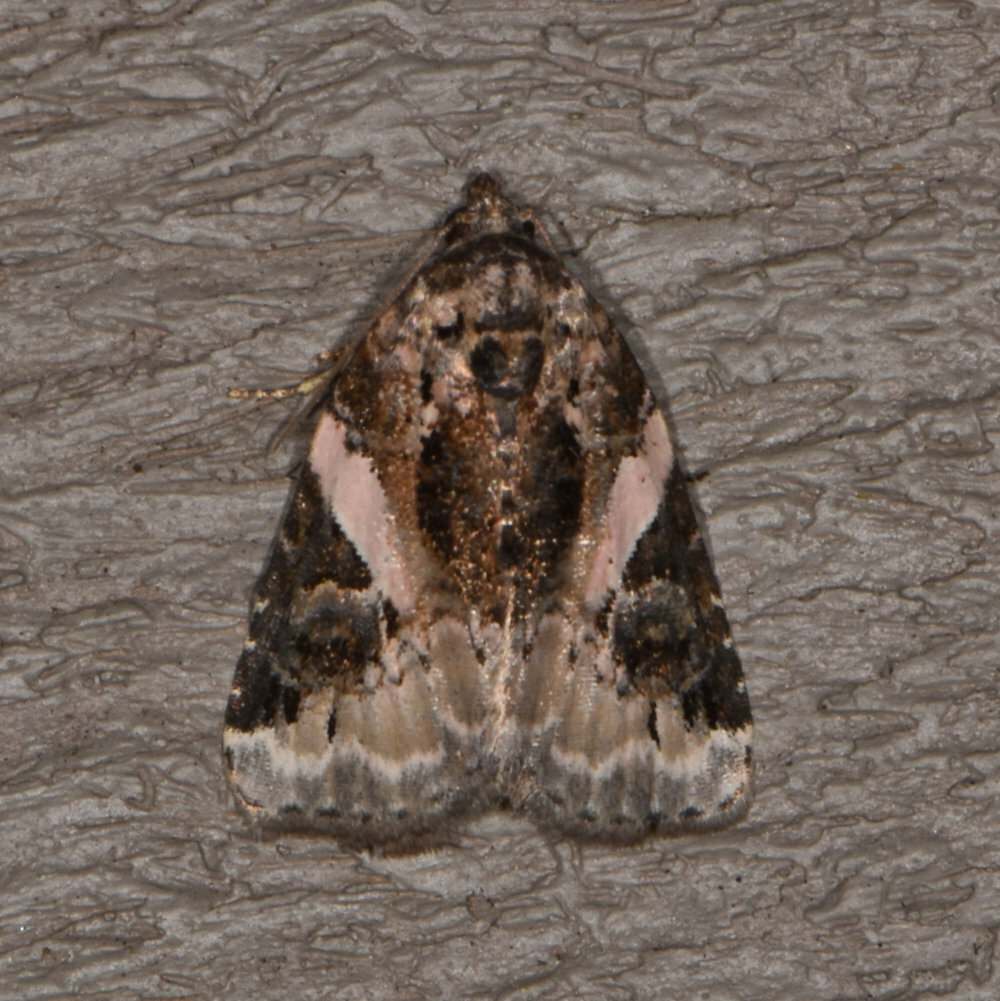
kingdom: Animalia
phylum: Arthropoda
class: Insecta
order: Lepidoptera
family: Noctuidae
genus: Pseudeustrotia
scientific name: Pseudeustrotia carneola
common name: Pink-barred lithacodia moth
